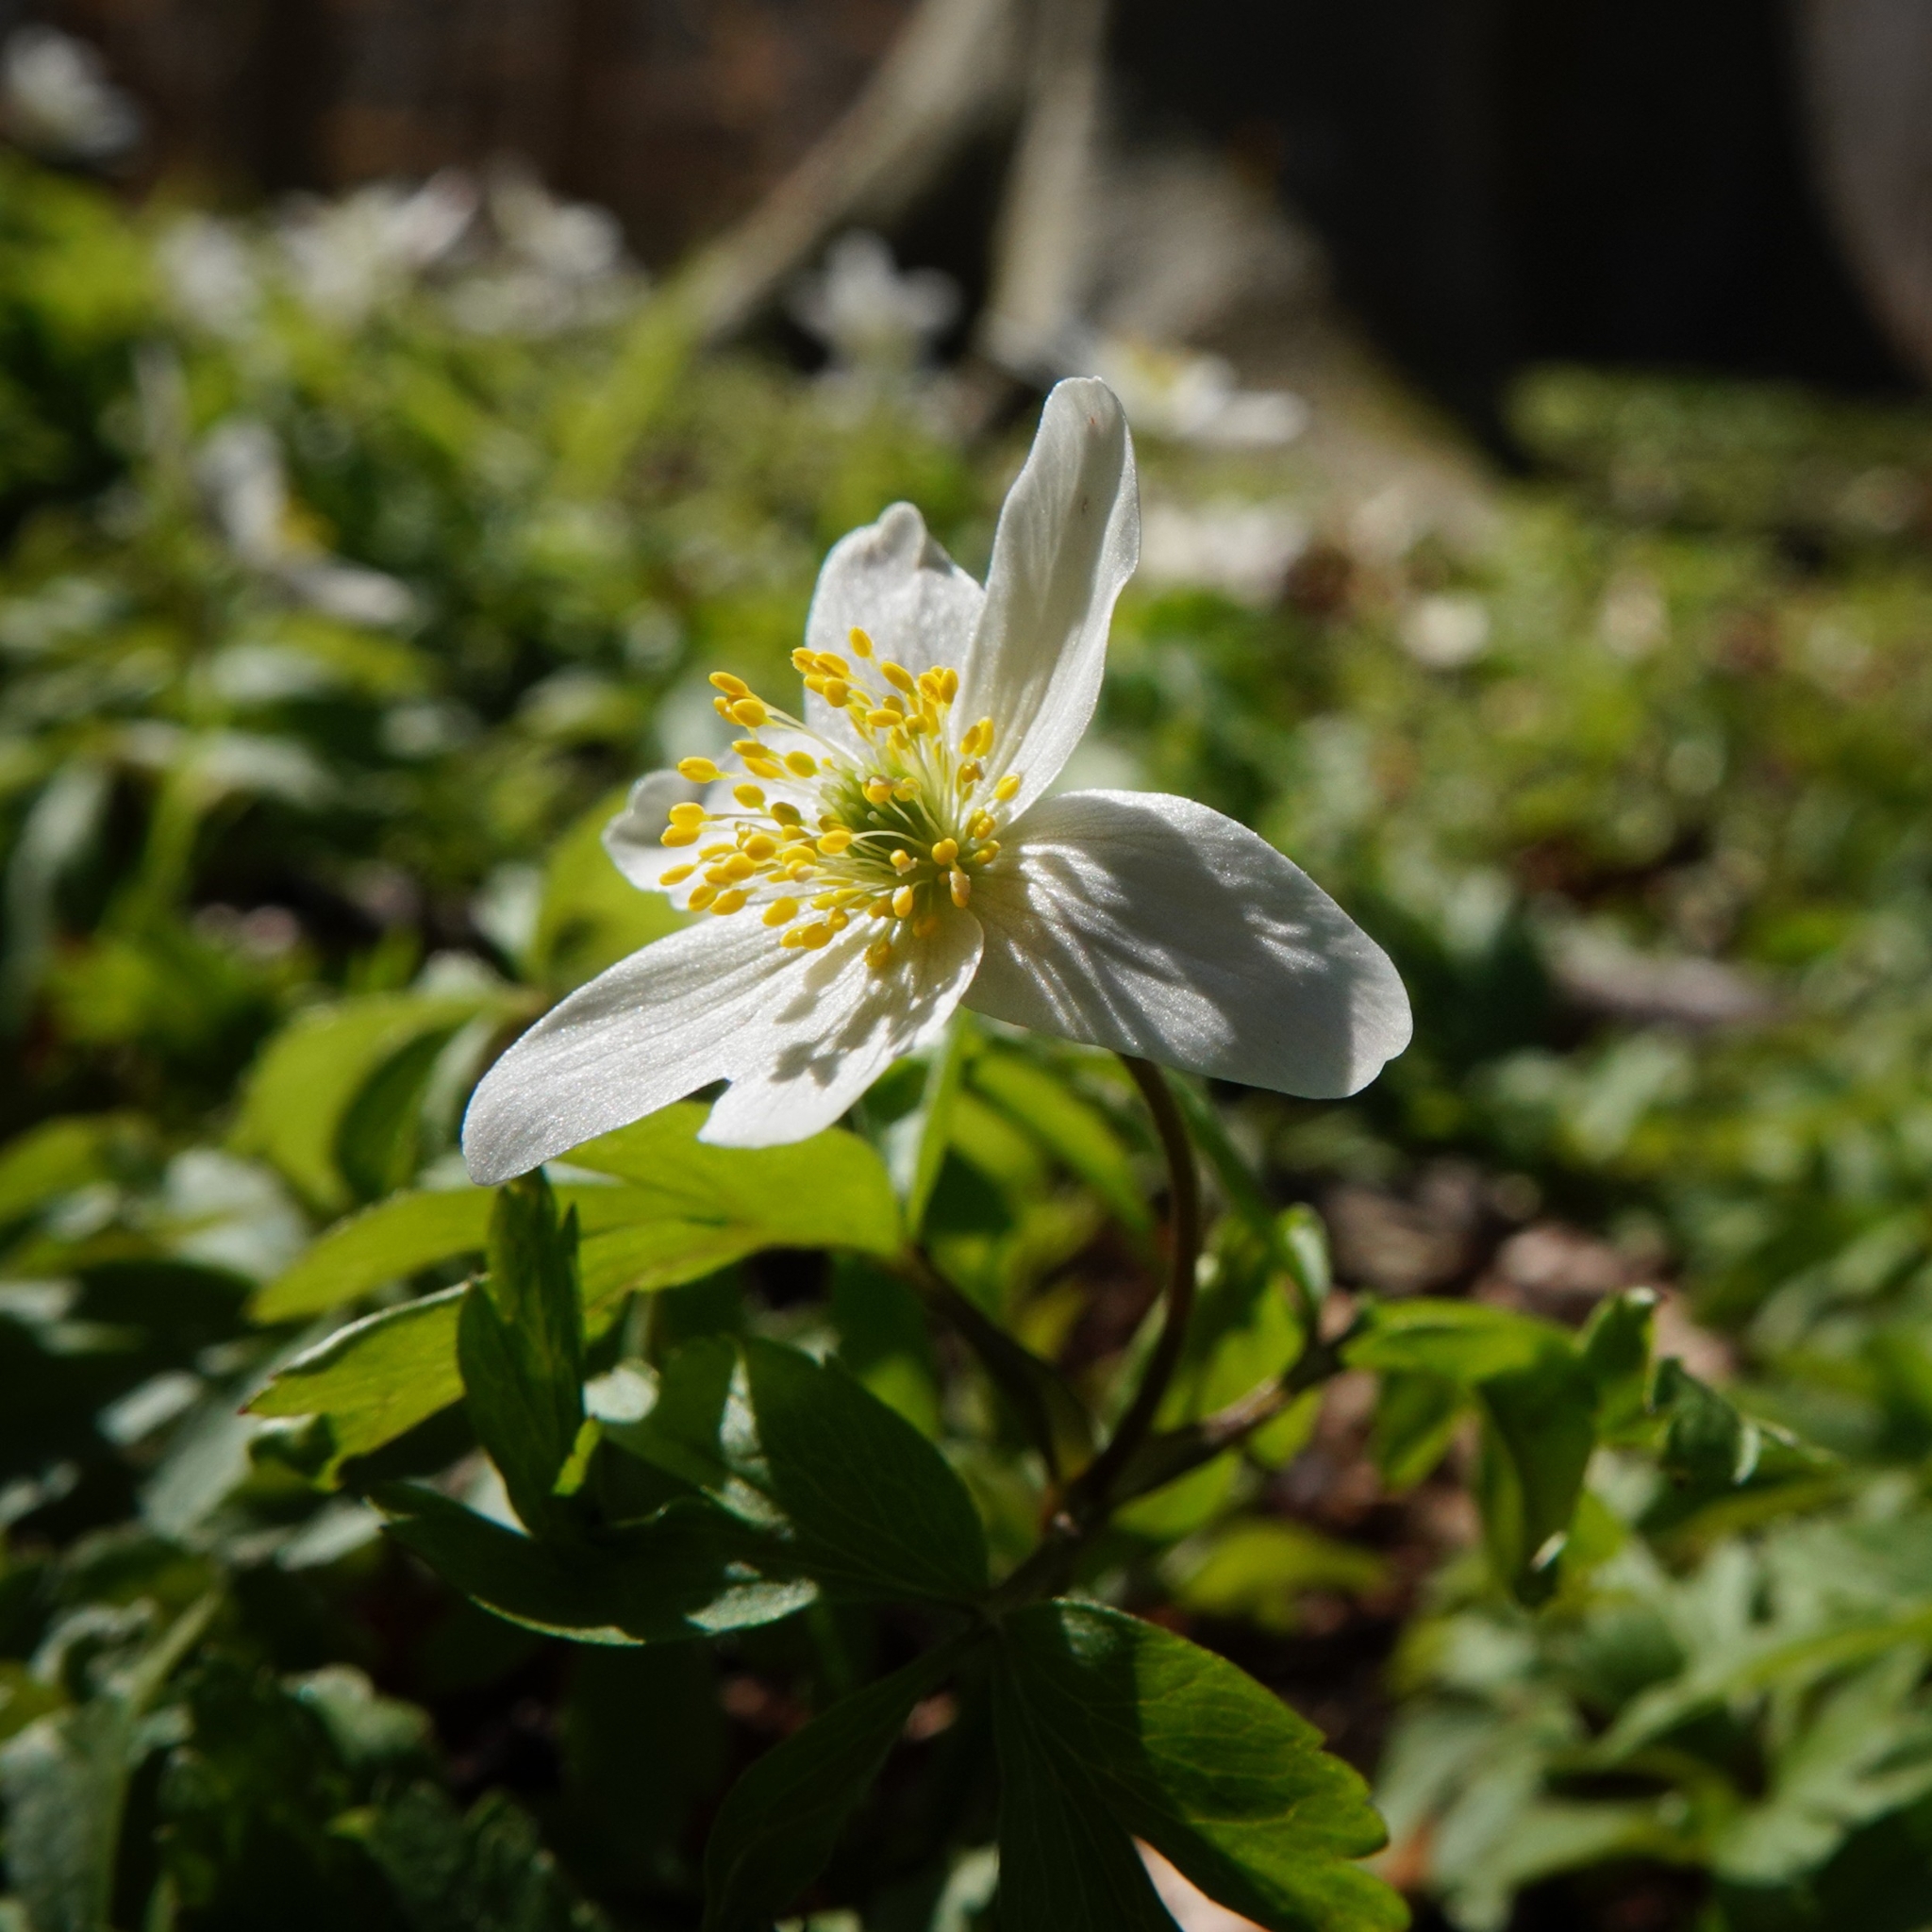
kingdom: Plantae
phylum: Tracheophyta
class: Magnoliopsida
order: Ranunculales
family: Ranunculaceae
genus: Anemone
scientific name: Anemone nemorosa
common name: Wood anemone
